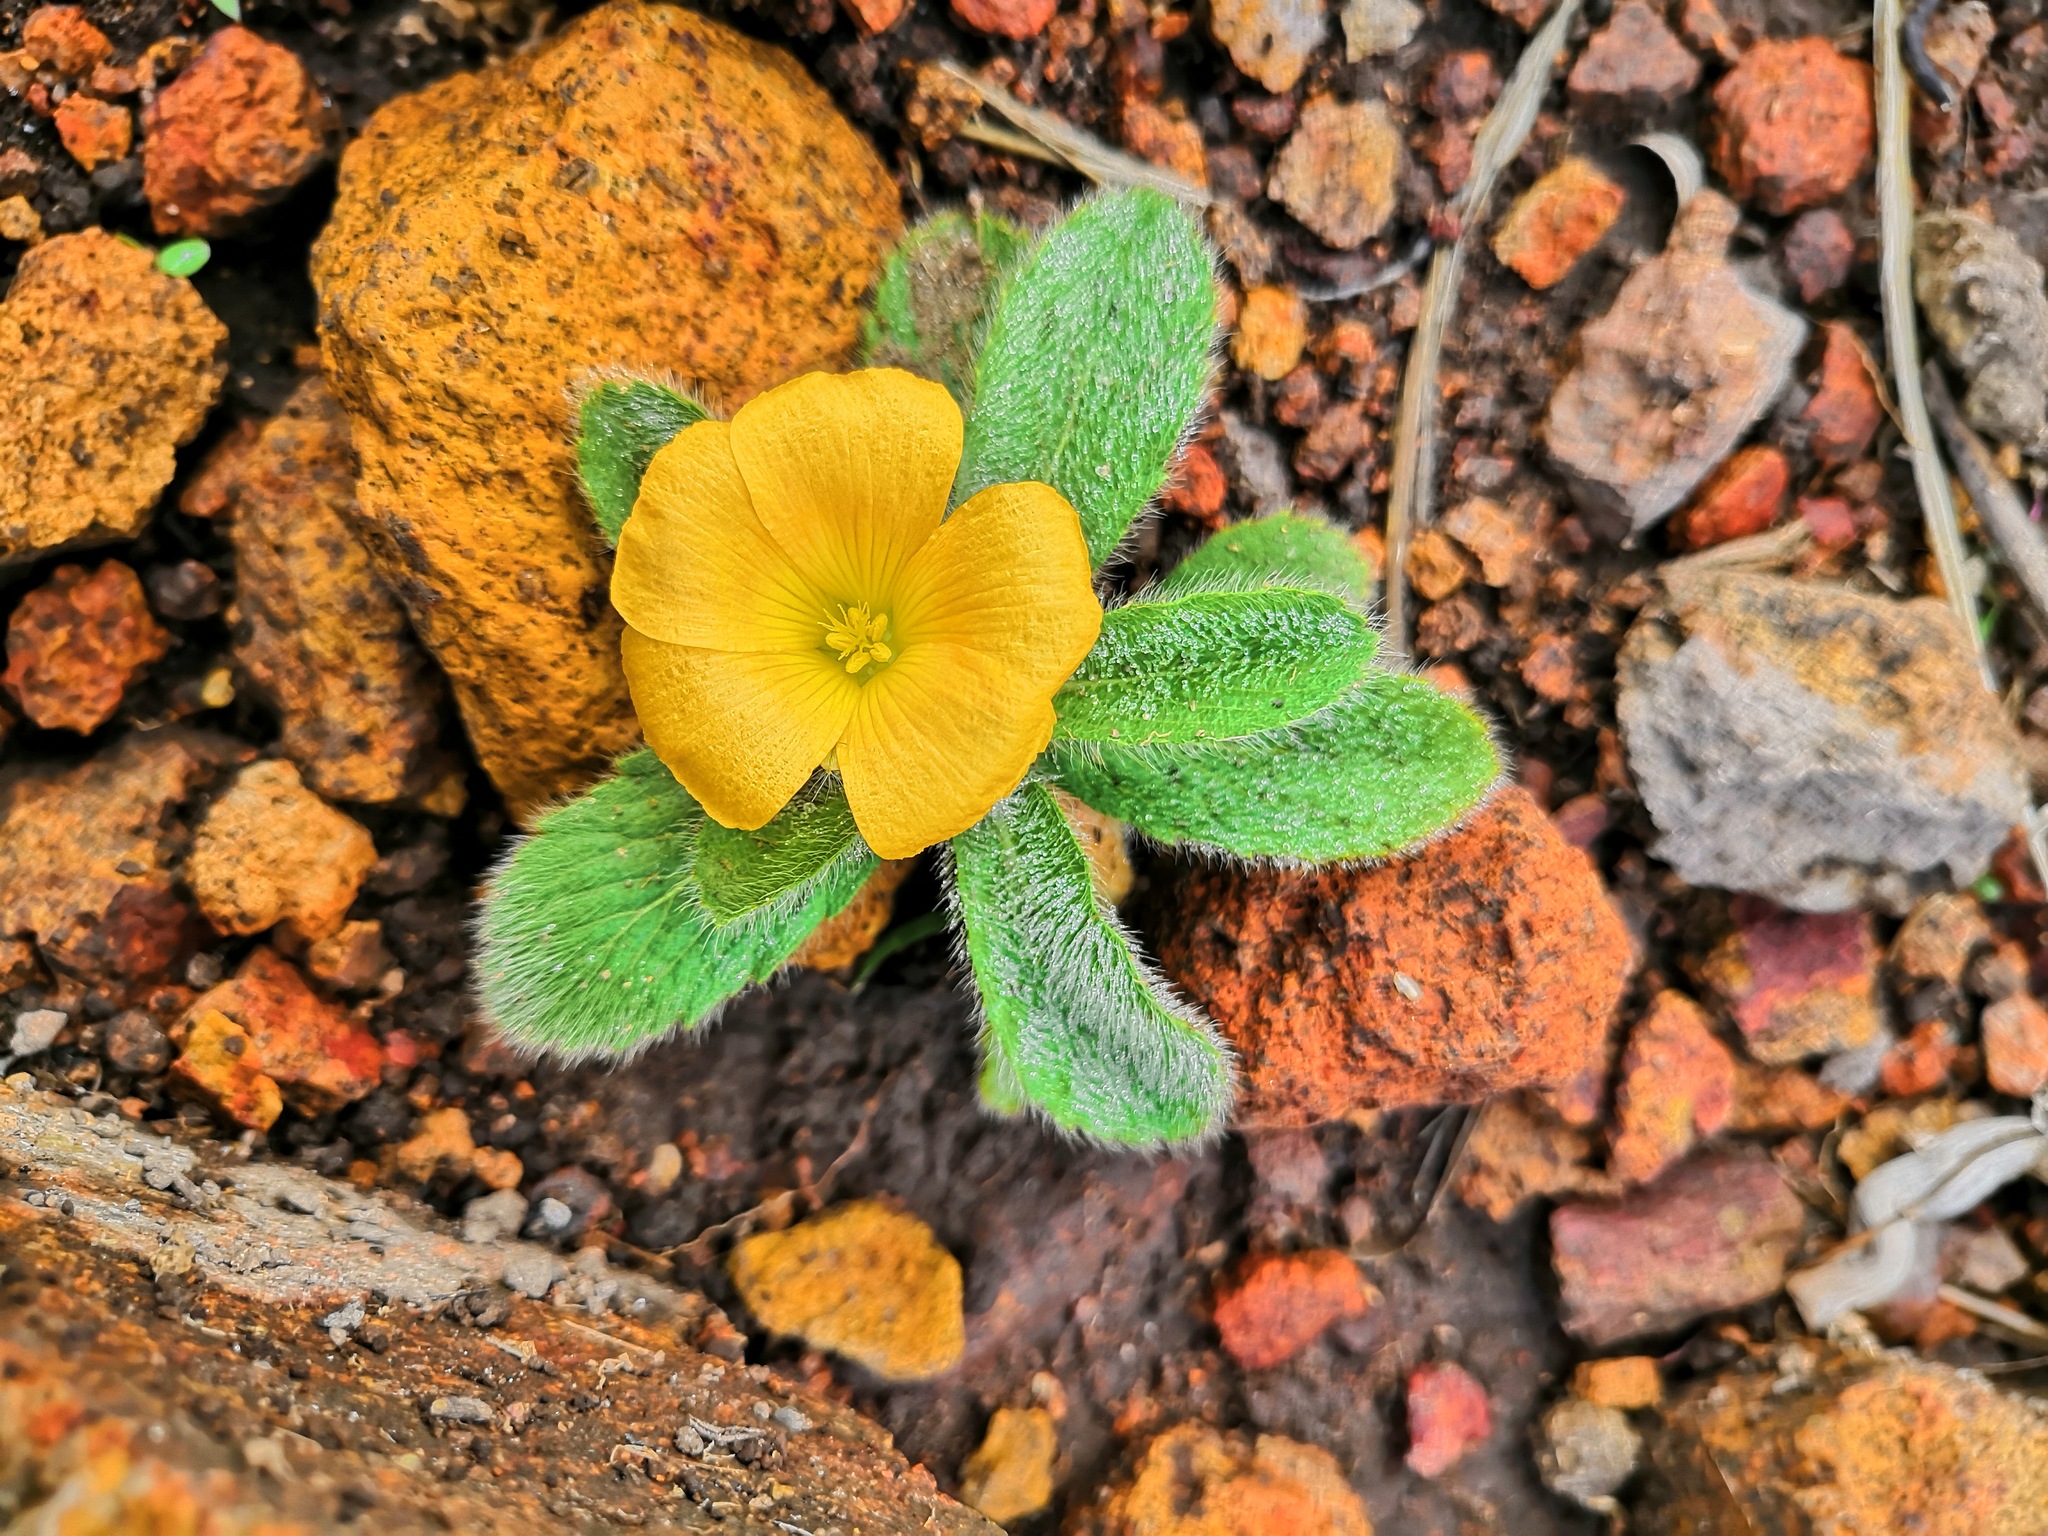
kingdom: Plantae
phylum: Tracheophyta
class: Magnoliopsida
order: Malpighiales
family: Turneraceae
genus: Turnera
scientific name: Turnera callosa
